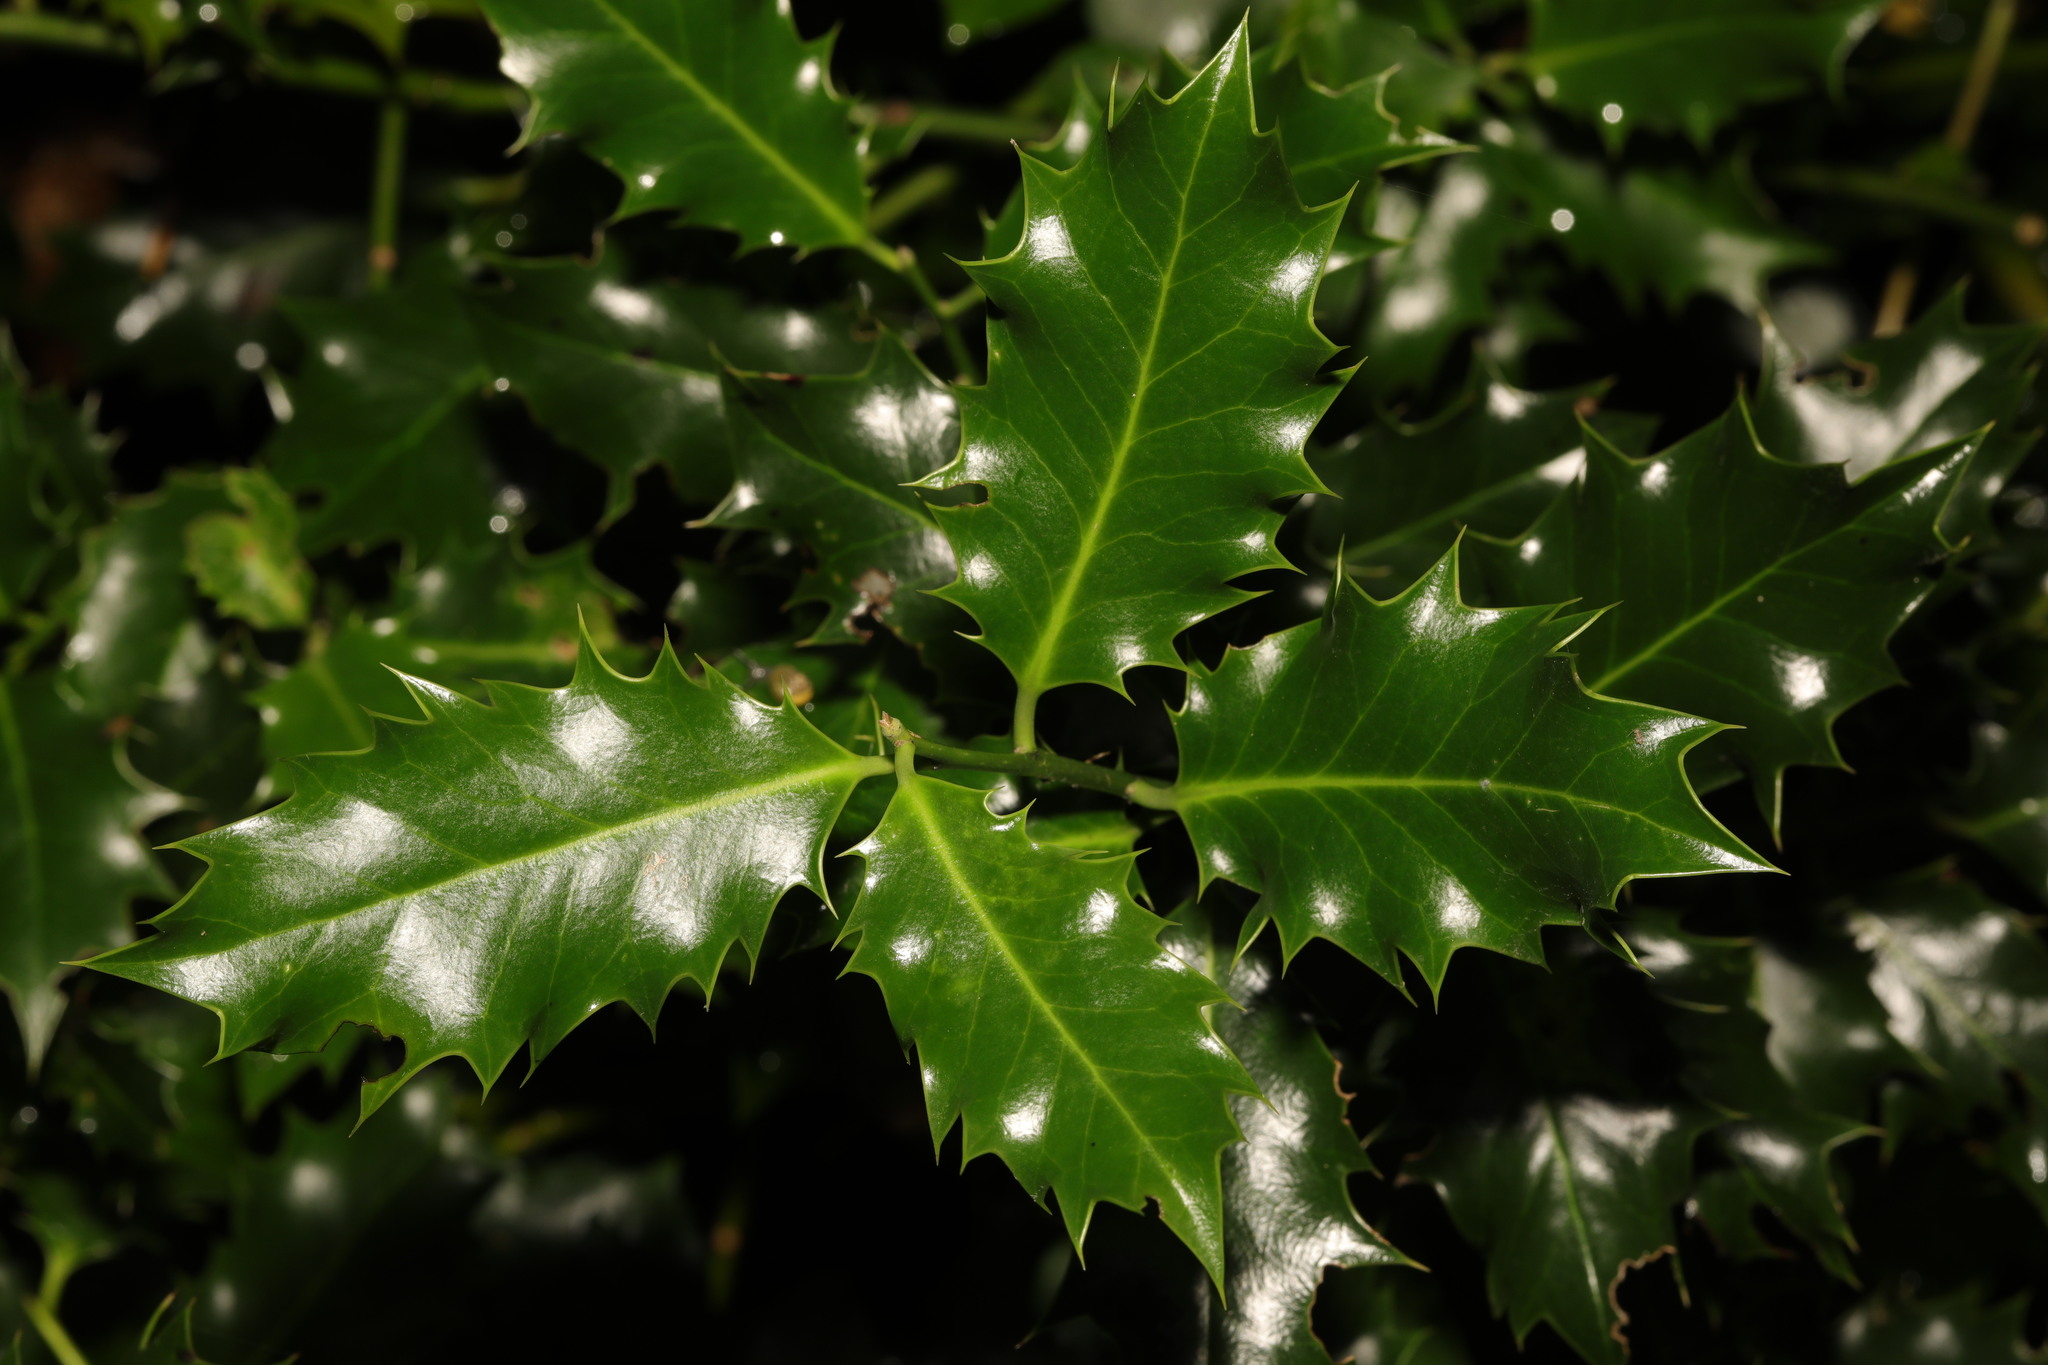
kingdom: Plantae
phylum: Tracheophyta
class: Magnoliopsida
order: Aquifoliales
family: Aquifoliaceae
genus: Ilex
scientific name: Ilex aquifolium
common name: English holly
